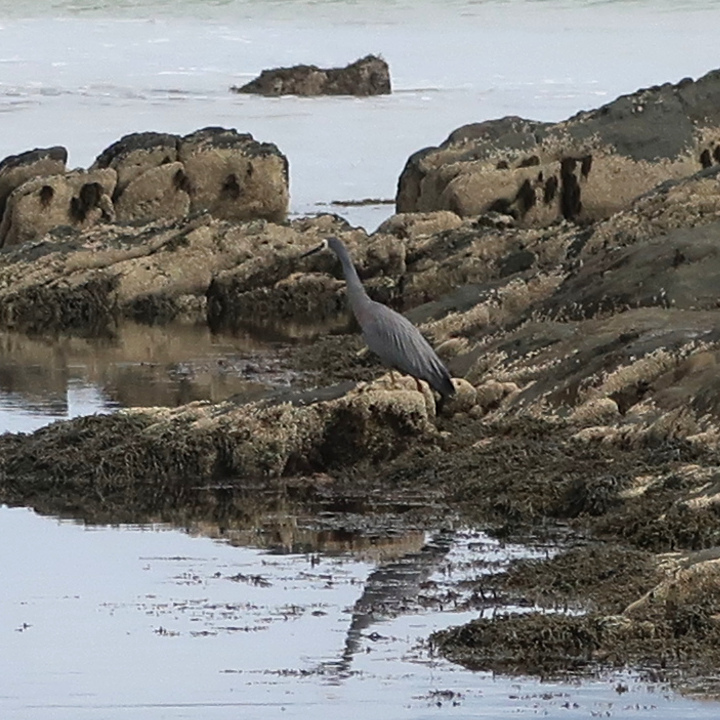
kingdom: Animalia
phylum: Chordata
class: Aves
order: Pelecaniformes
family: Ardeidae
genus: Egretta
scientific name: Egretta novaehollandiae
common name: White-faced heron
